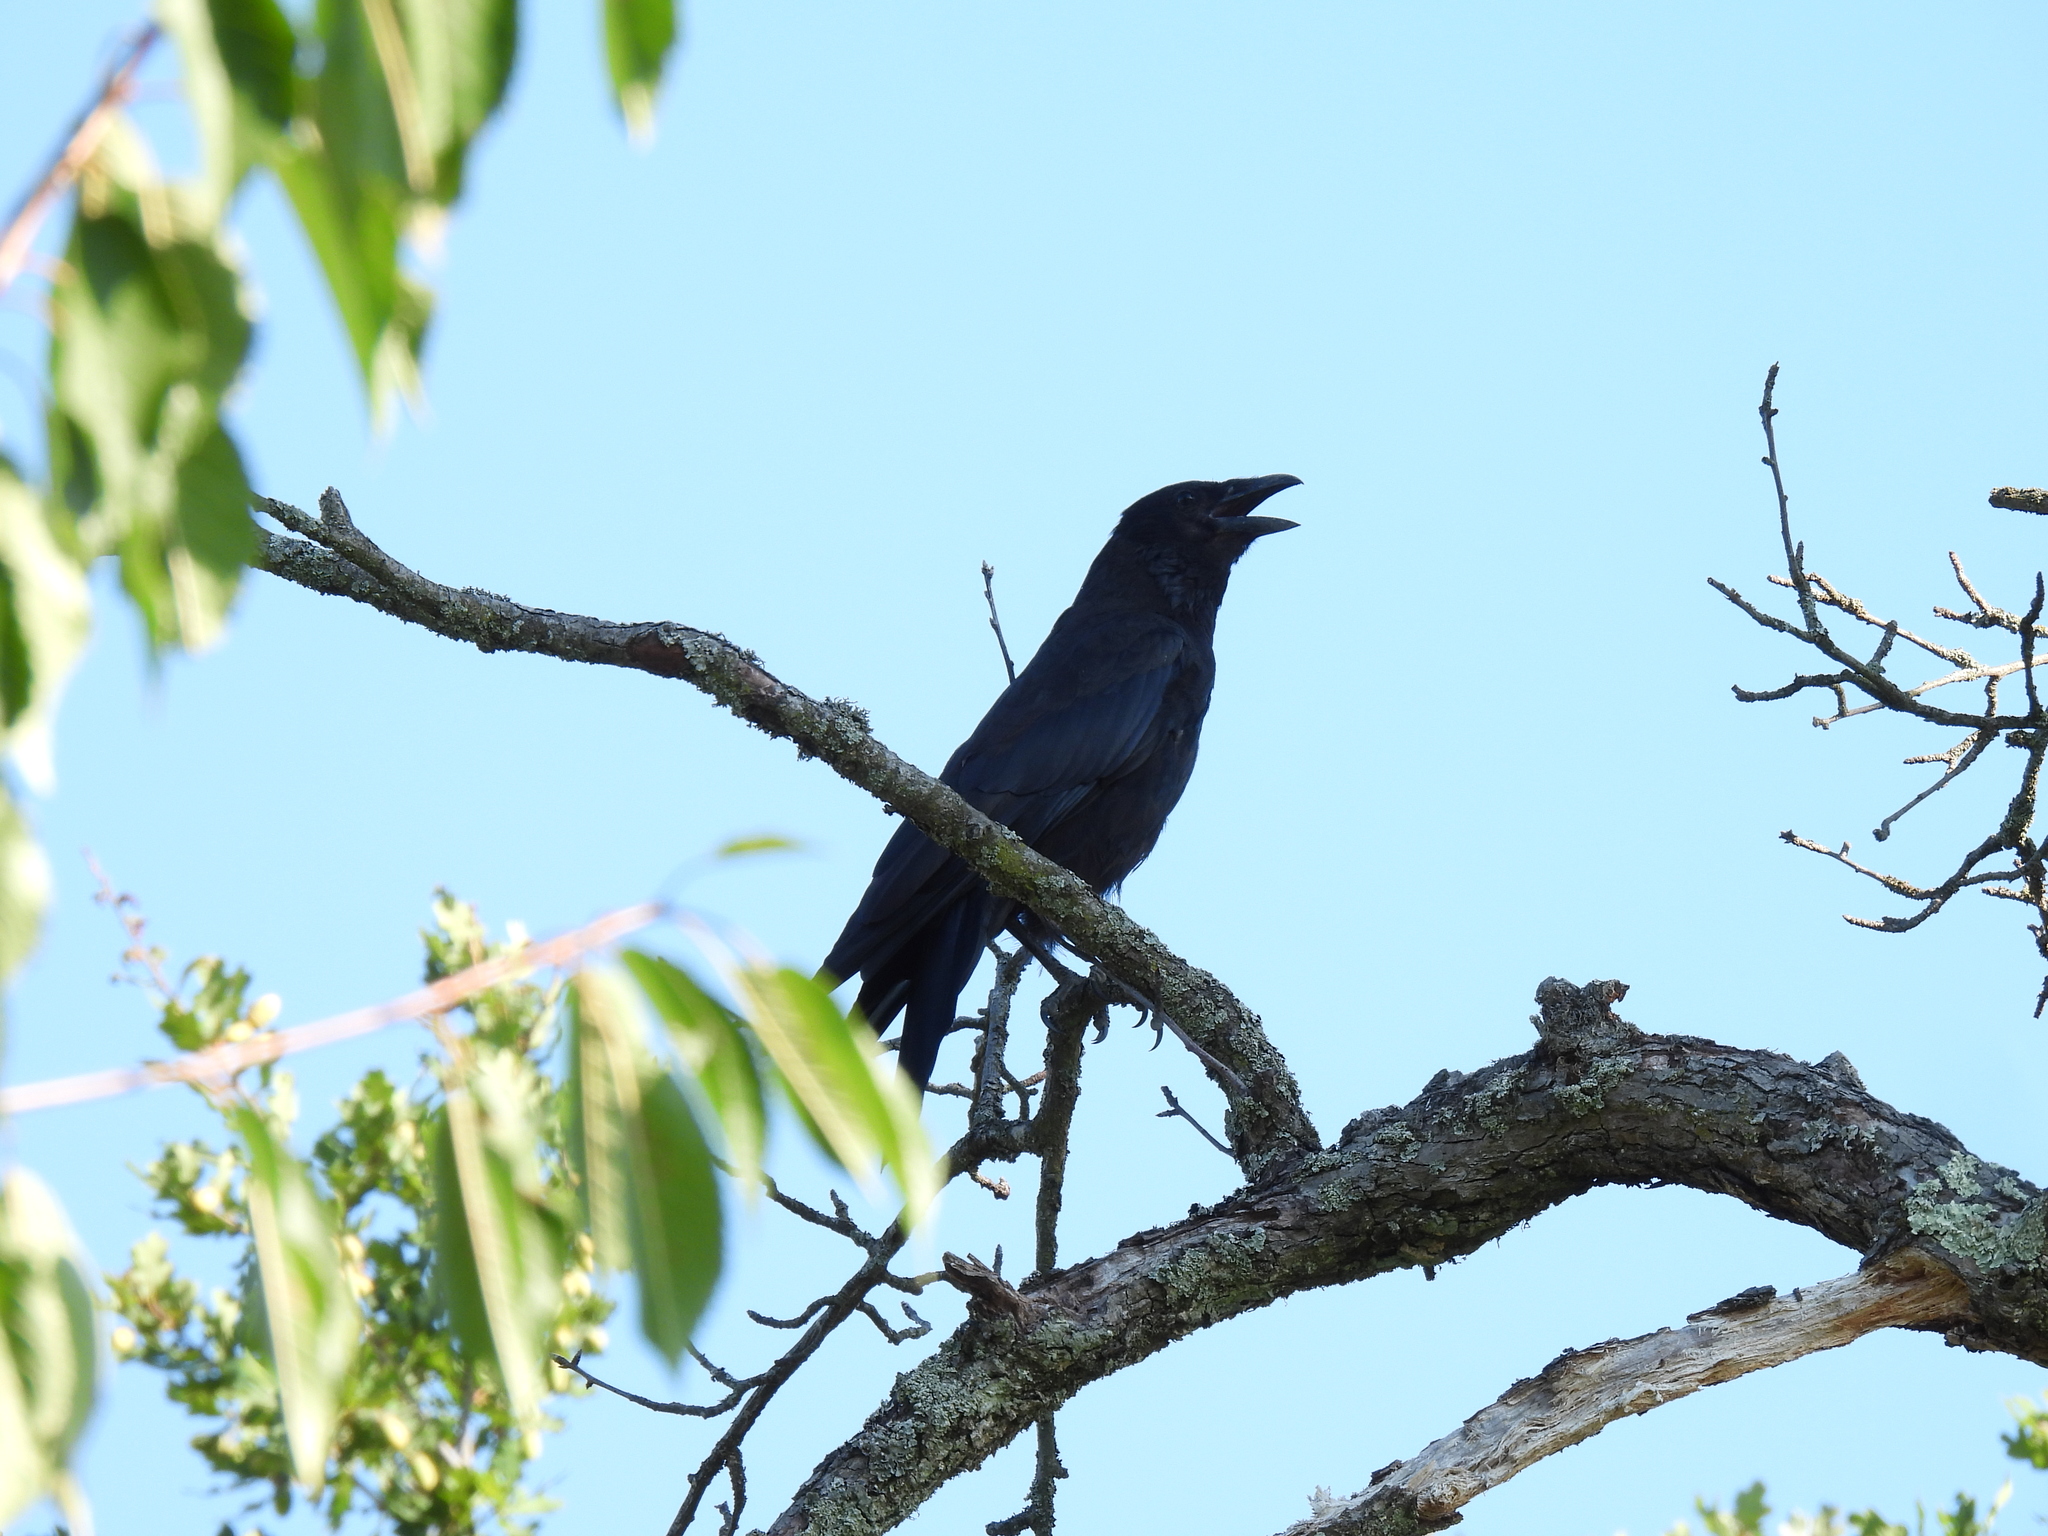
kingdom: Animalia
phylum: Chordata
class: Aves
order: Passeriformes
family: Corvidae
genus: Corvus
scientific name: Corvus corone
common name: Carrion crow
